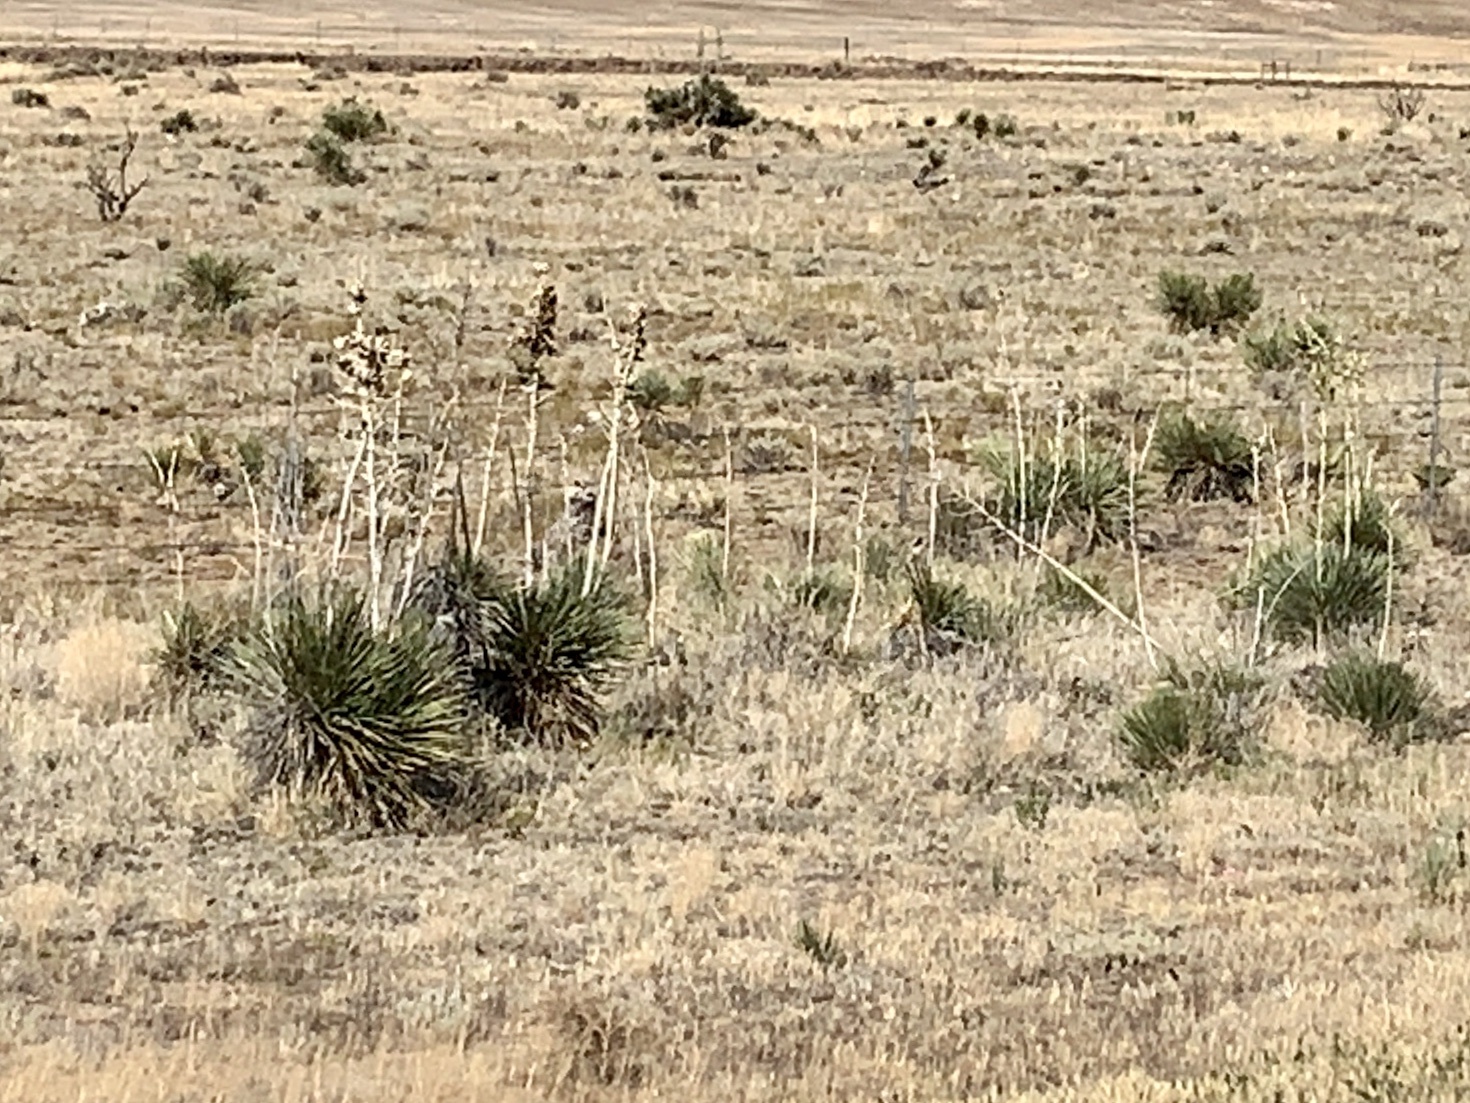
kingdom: Plantae
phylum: Tracheophyta
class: Liliopsida
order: Asparagales
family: Asparagaceae
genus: Yucca
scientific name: Yucca elata
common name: Palmella
